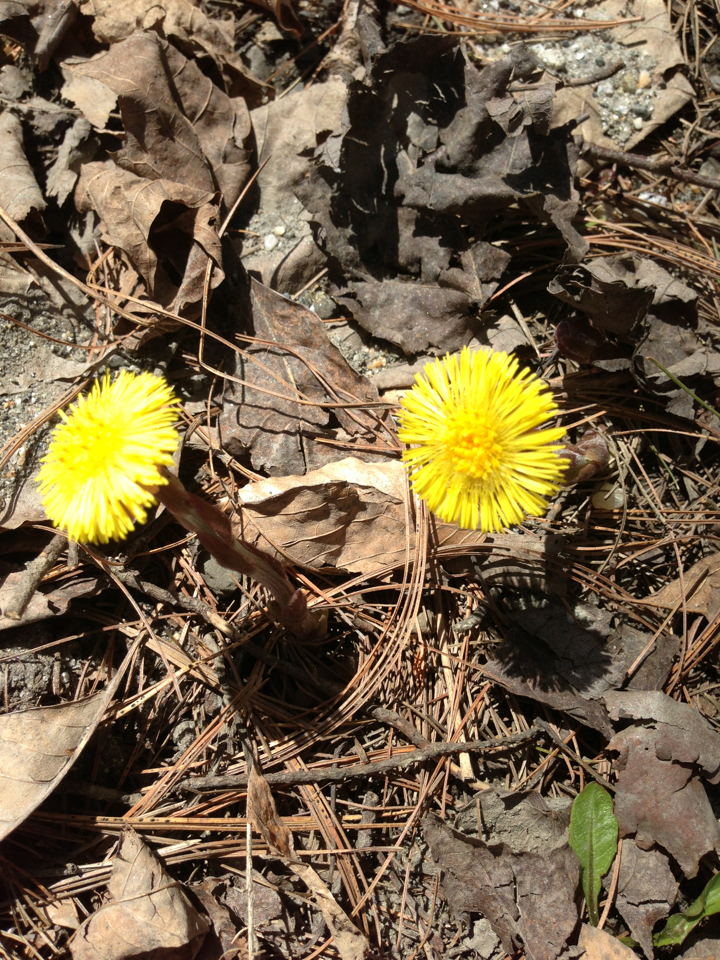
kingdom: Plantae
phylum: Tracheophyta
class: Magnoliopsida
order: Asterales
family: Asteraceae
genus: Tussilago
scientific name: Tussilago farfara
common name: Coltsfoot
